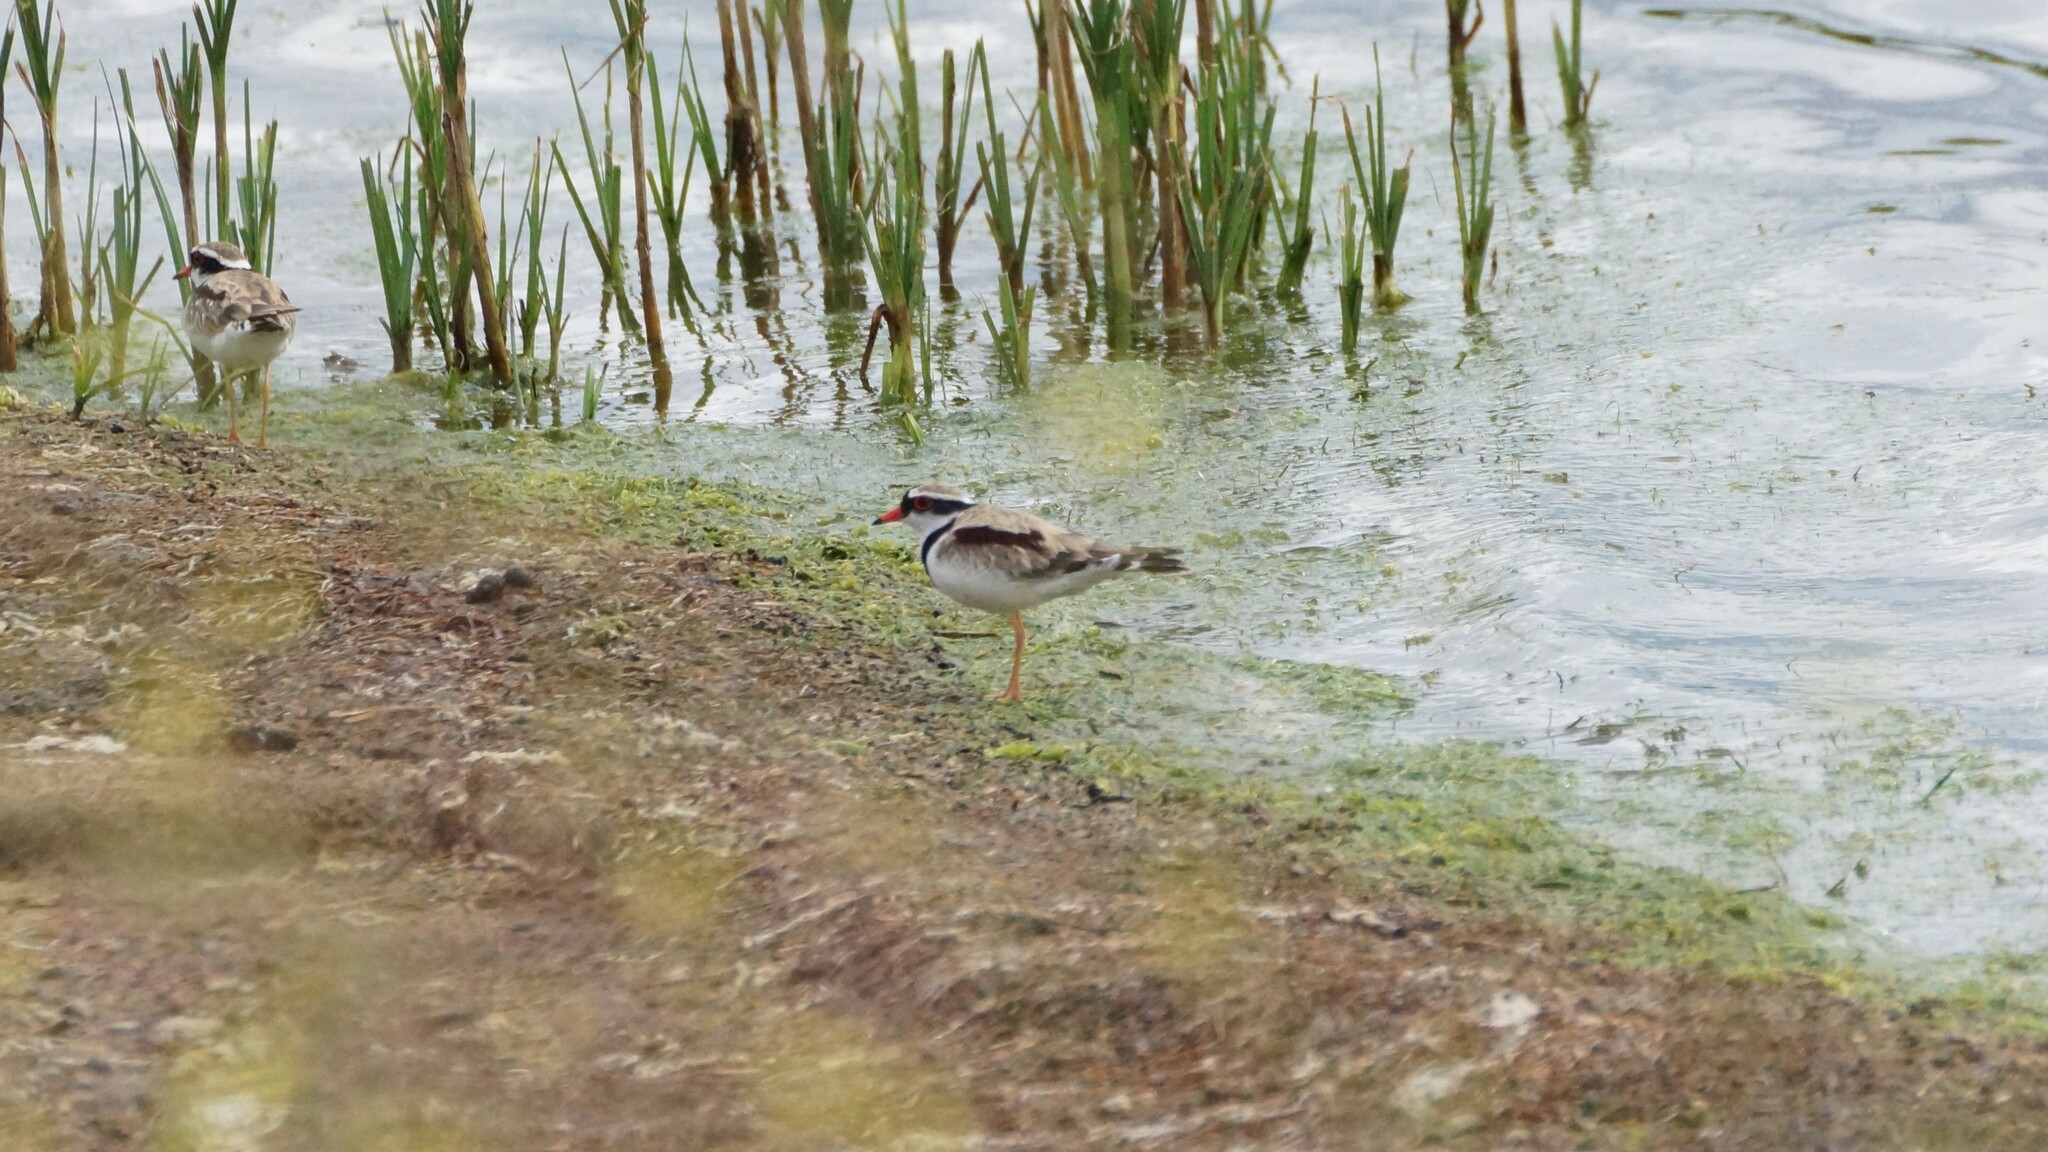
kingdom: Animalia
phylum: Chordata
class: Aves
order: Charadriiformes
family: Charadriidae
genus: Elseyornis
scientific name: Elseyornis melanops
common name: Black-fronted dotterel
